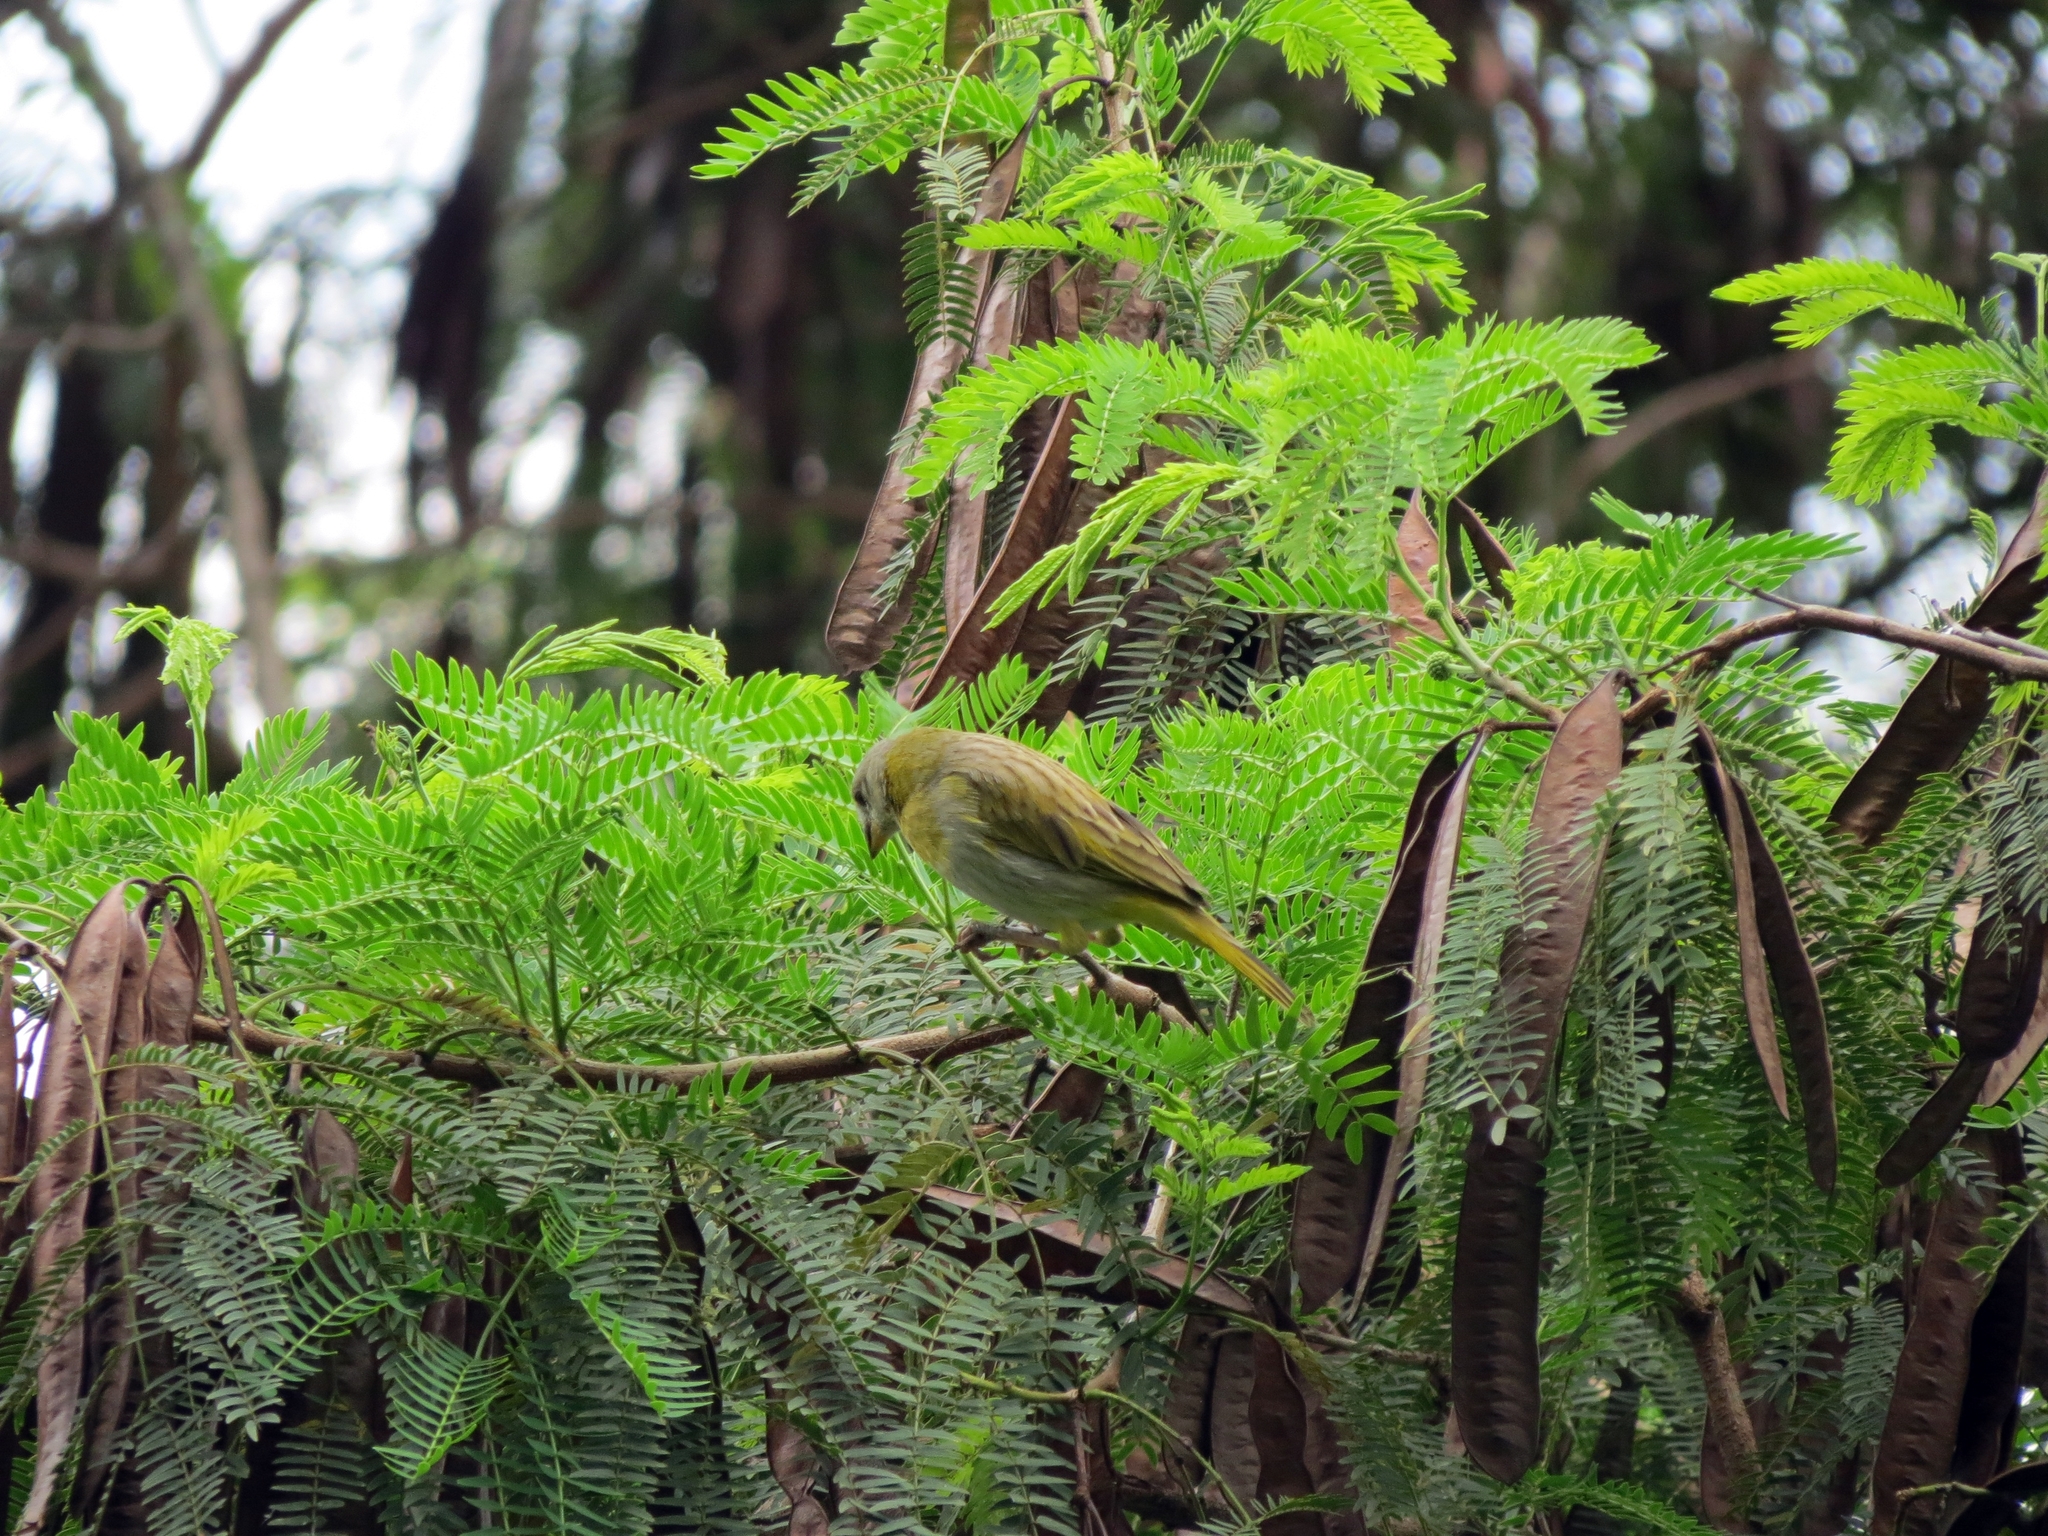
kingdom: Animalia
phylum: Chordata
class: Aves
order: Passeriformes
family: Thraupidae
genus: Sicalis
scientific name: Sicalis flaveola
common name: Saffron finch
